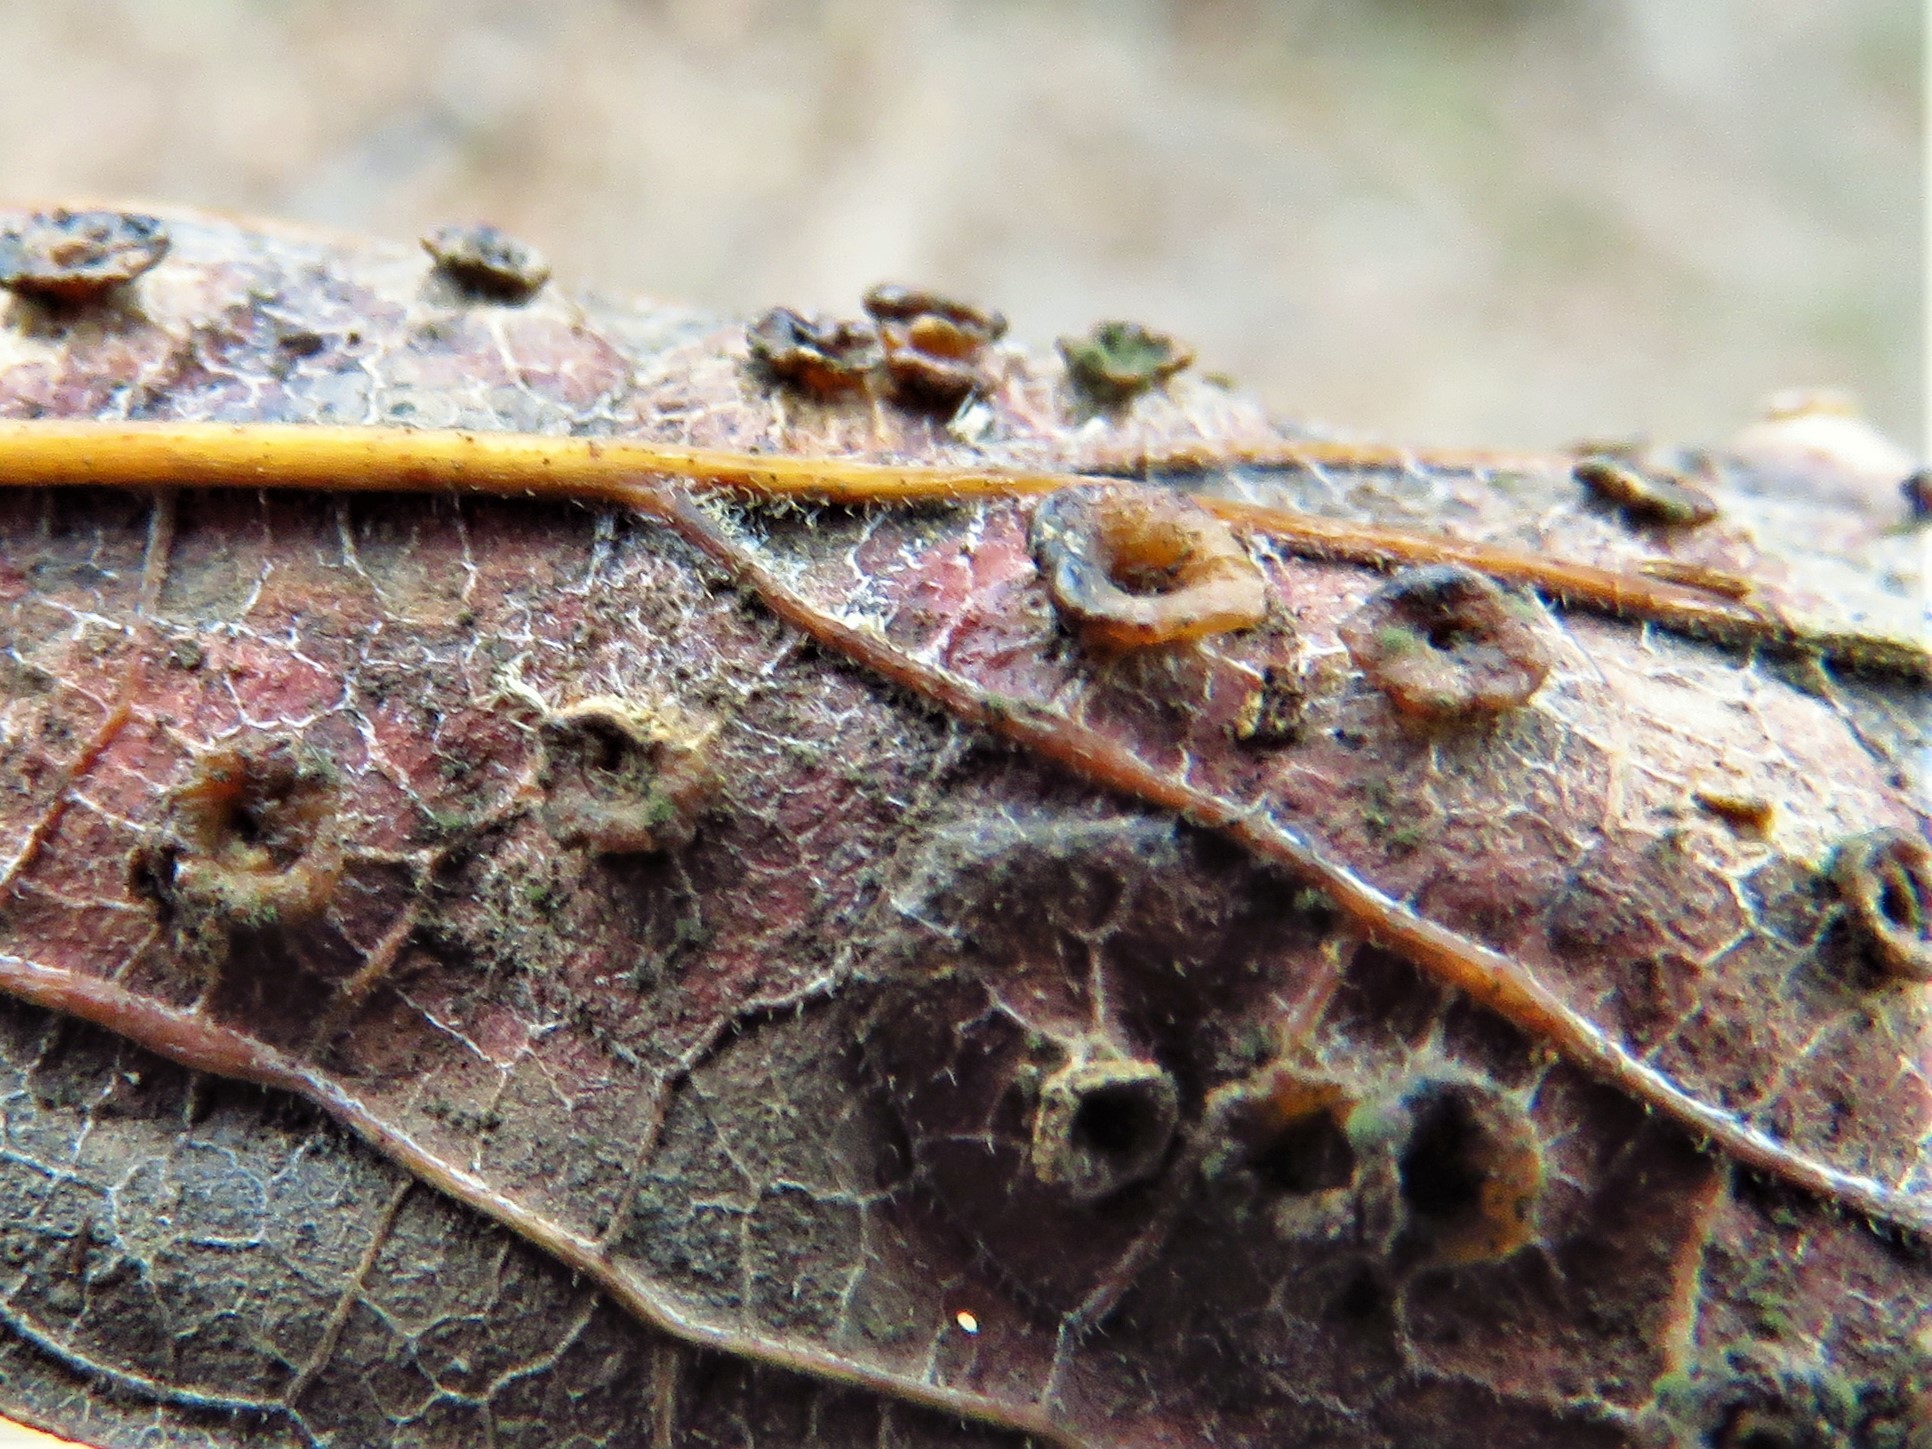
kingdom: Animalia
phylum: Arthropoda
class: Insecta
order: Hemiptera
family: Aphalaridae
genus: Pachypsylla
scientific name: Pachypsylla celtidisasterisca
